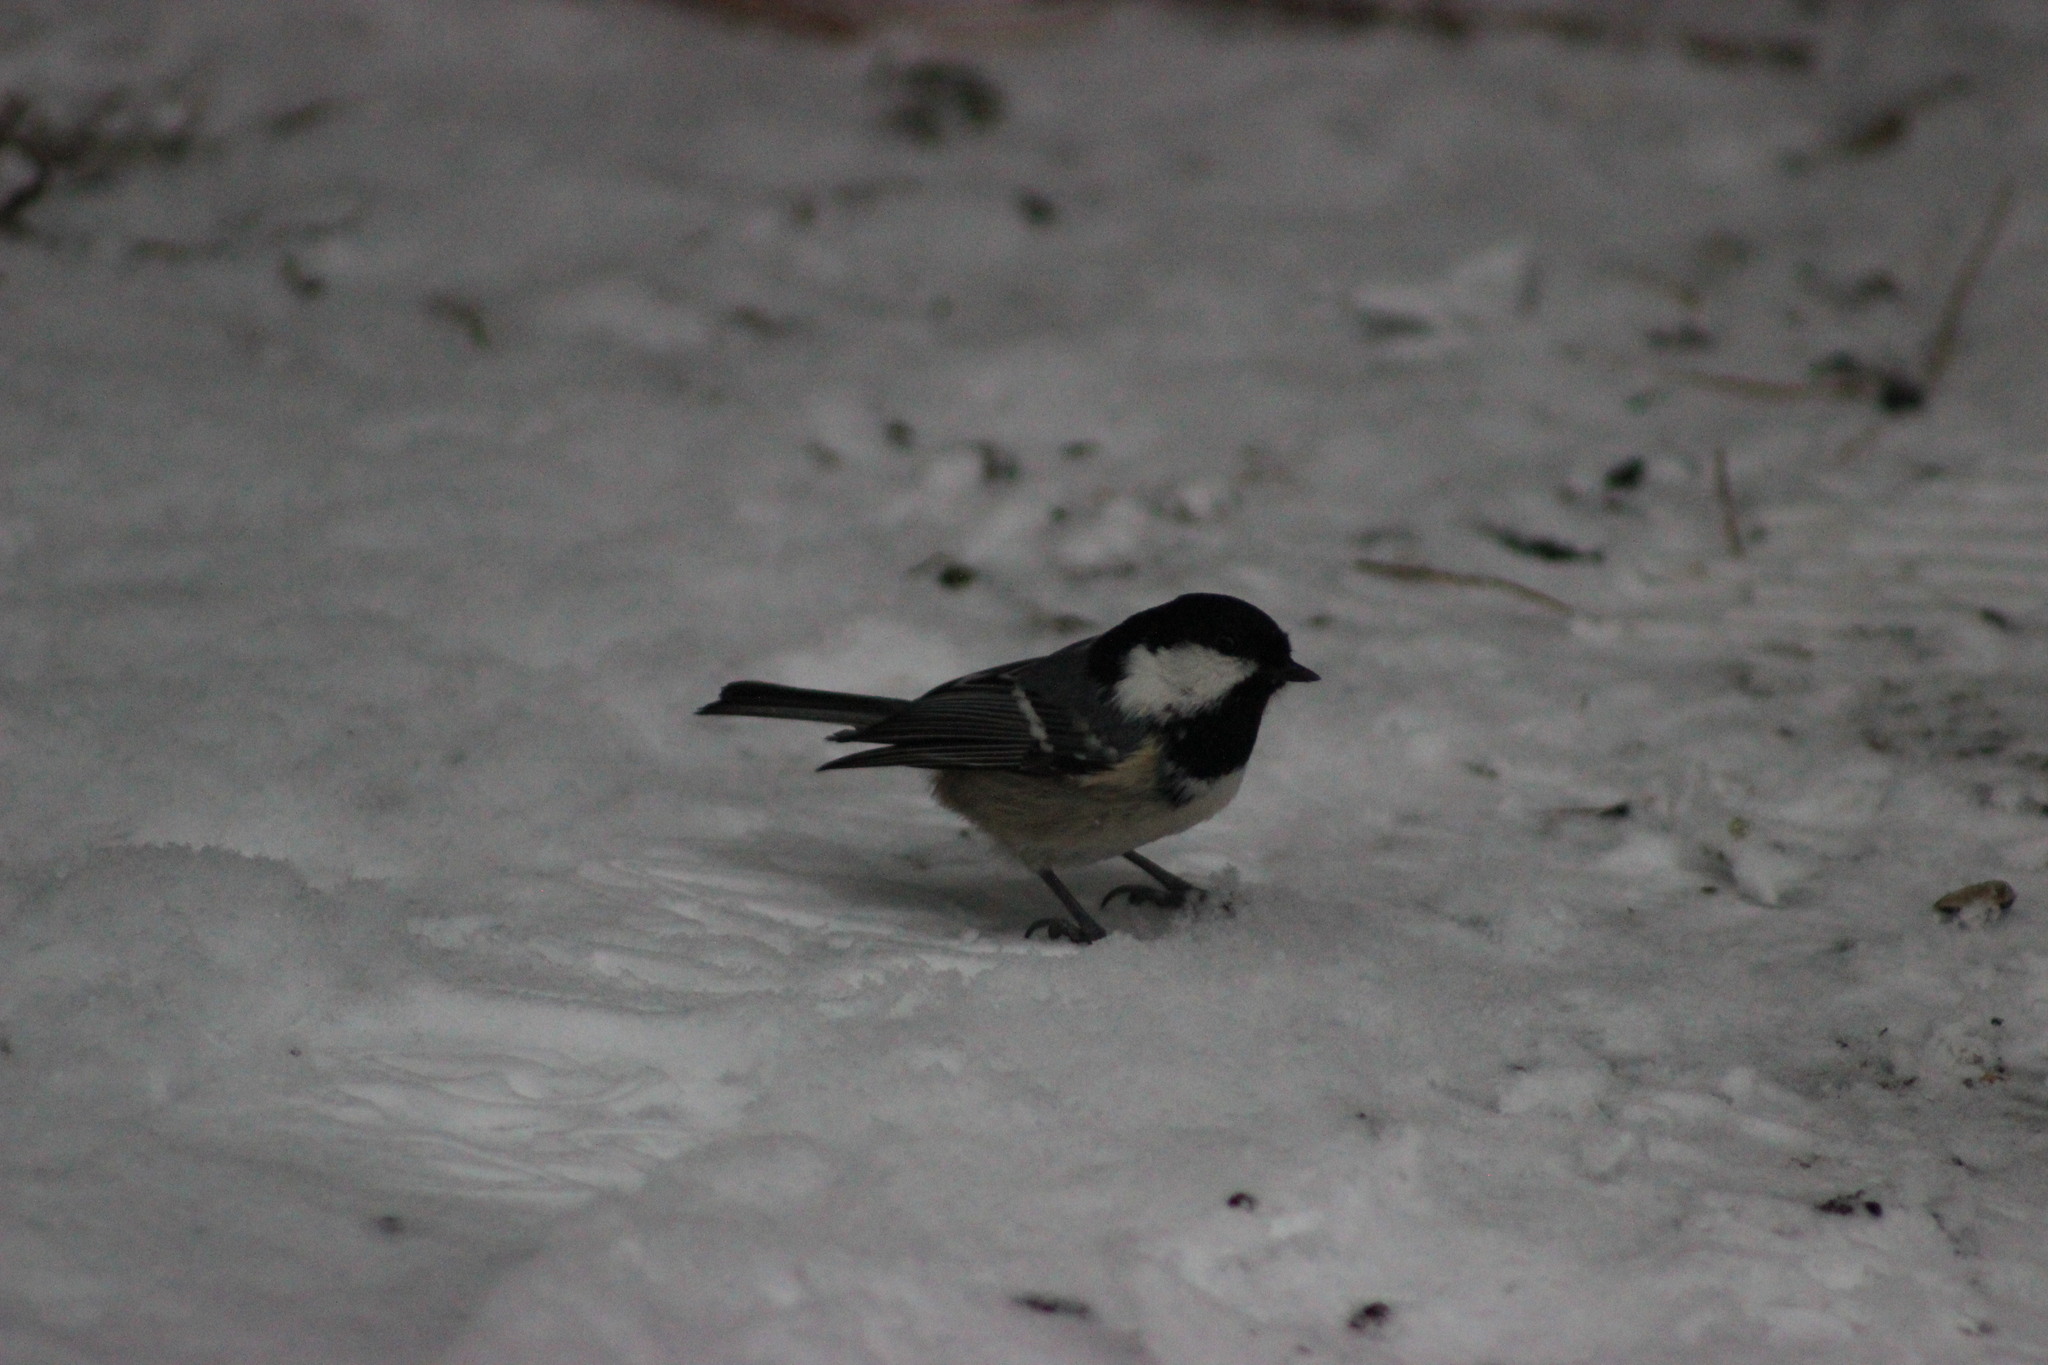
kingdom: Animalia
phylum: Chordata
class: Aves
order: Passeriformes
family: Paridae
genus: Periparus
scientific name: Periparus ater
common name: Coal tit
